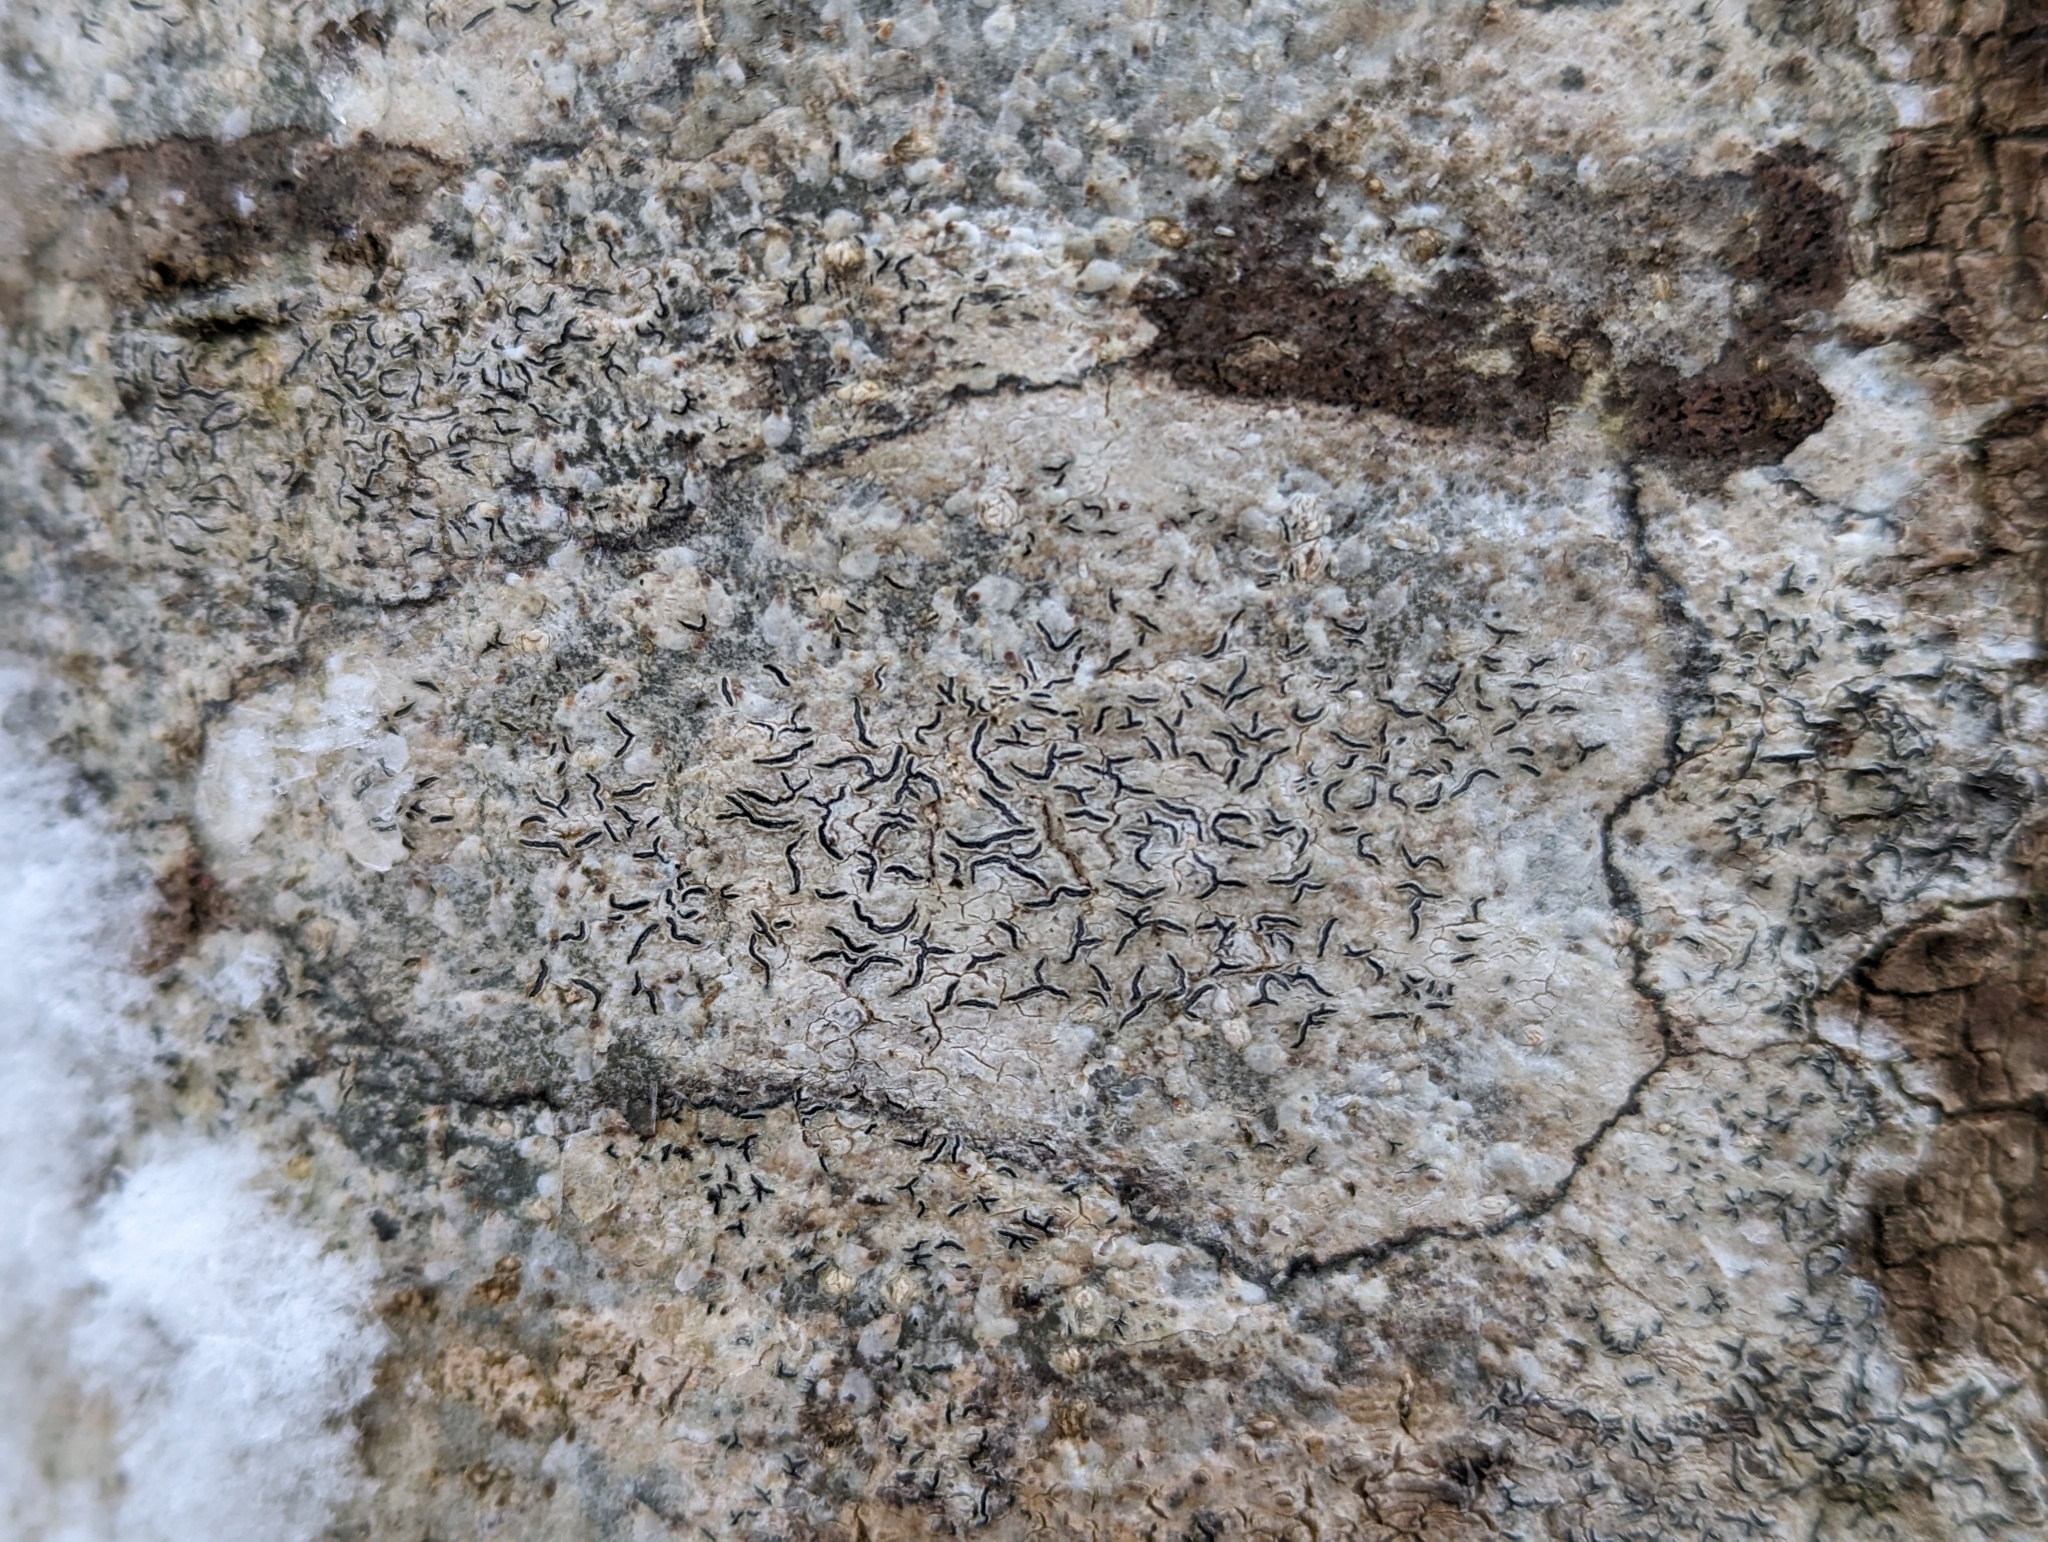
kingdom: Fungi
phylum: Ascomycota
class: Lecanoromycetes
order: Ostropales
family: Graphidaceae
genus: Graphis
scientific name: Graphis scripta
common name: Script lichen
